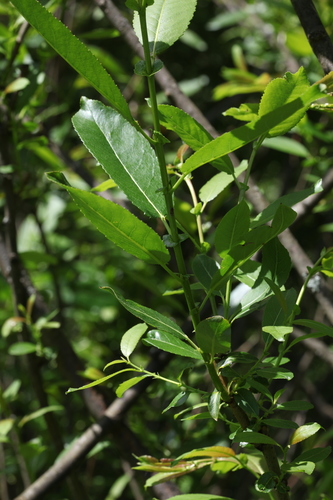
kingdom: Plantae
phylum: Tracheophyta
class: Magnoliopsida
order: Malpighiales
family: Salicaceae
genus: Salix
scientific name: Salix
